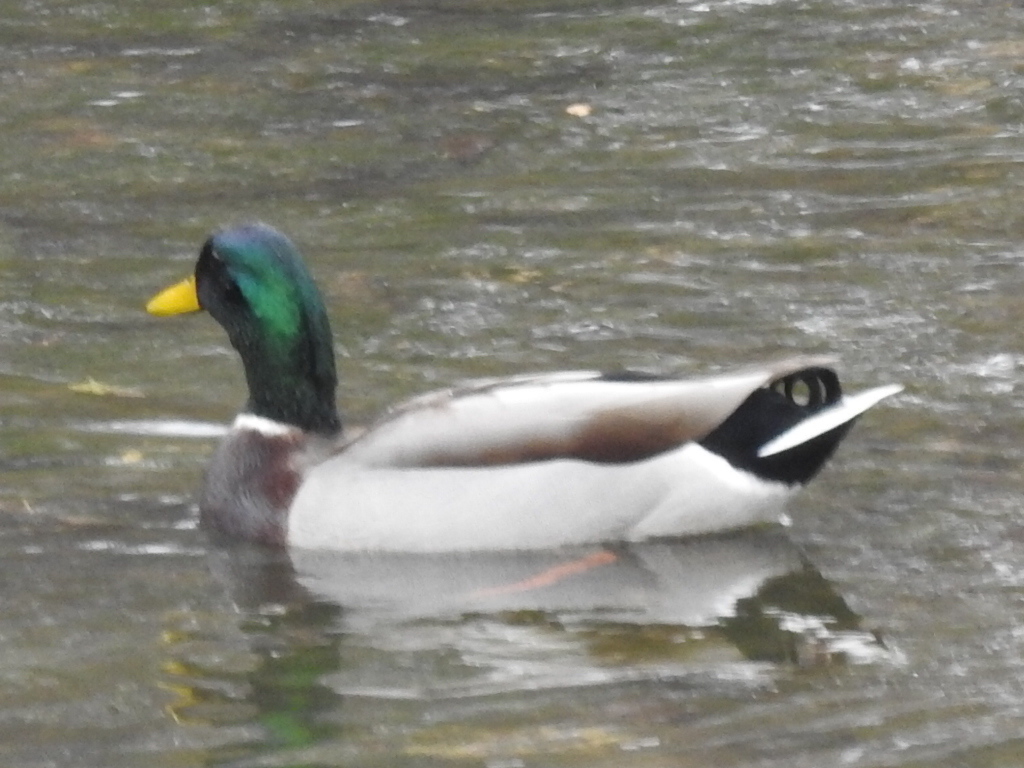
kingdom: Animalia
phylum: Chordata
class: Aves
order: Anseriformes
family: Anatidae
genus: Anas
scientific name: Anas platyrhynchos
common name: Mallard
